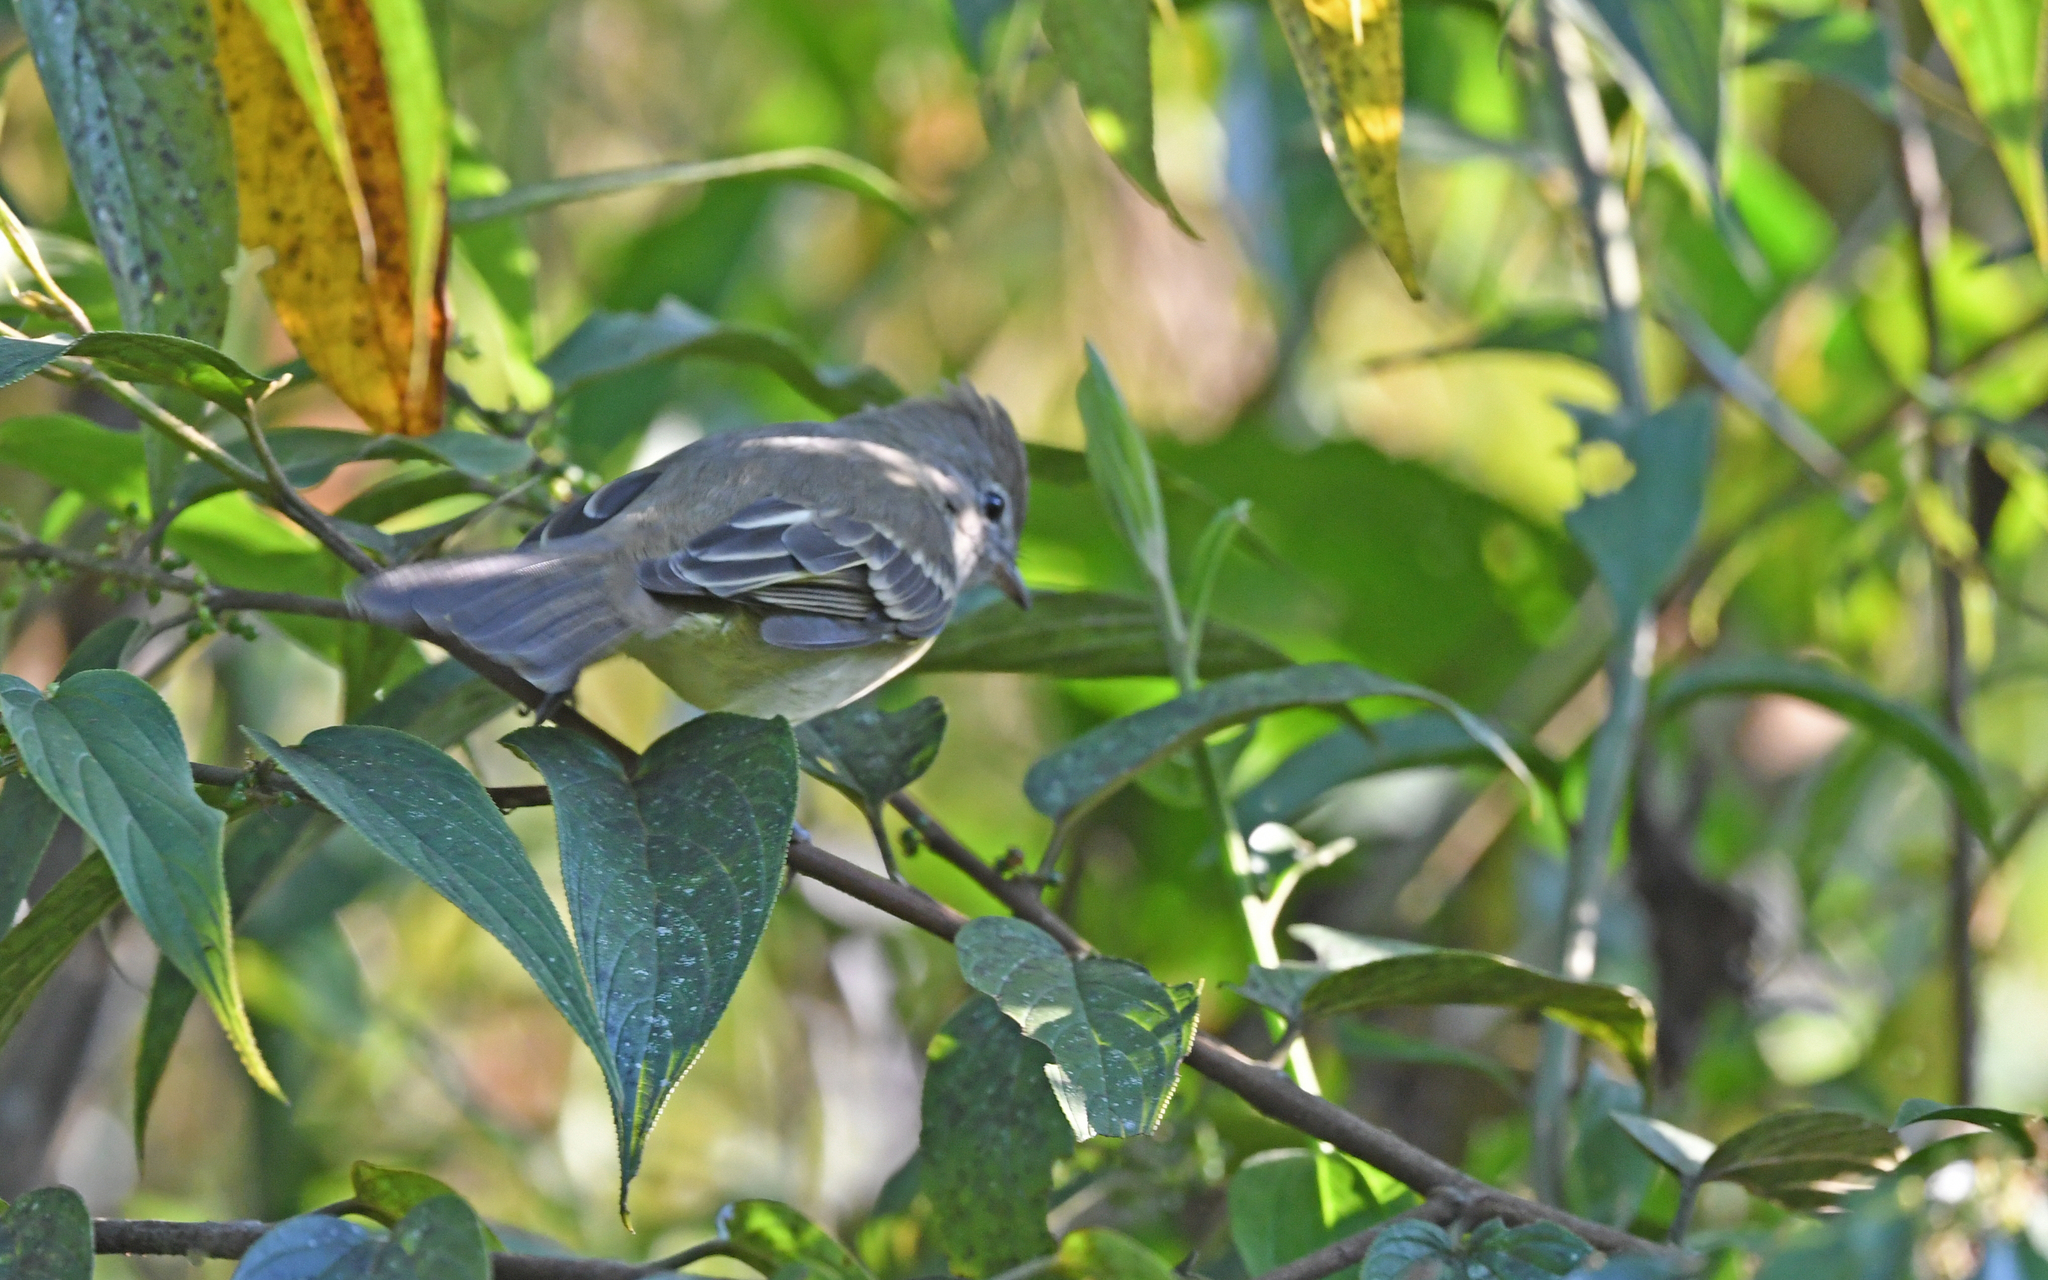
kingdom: Animalia
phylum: Chordata
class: Aves
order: Passeriformes
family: Tyrannidae
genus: Elaenia
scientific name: Elaenia flavogaster
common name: Yellow-bellied elaenia
